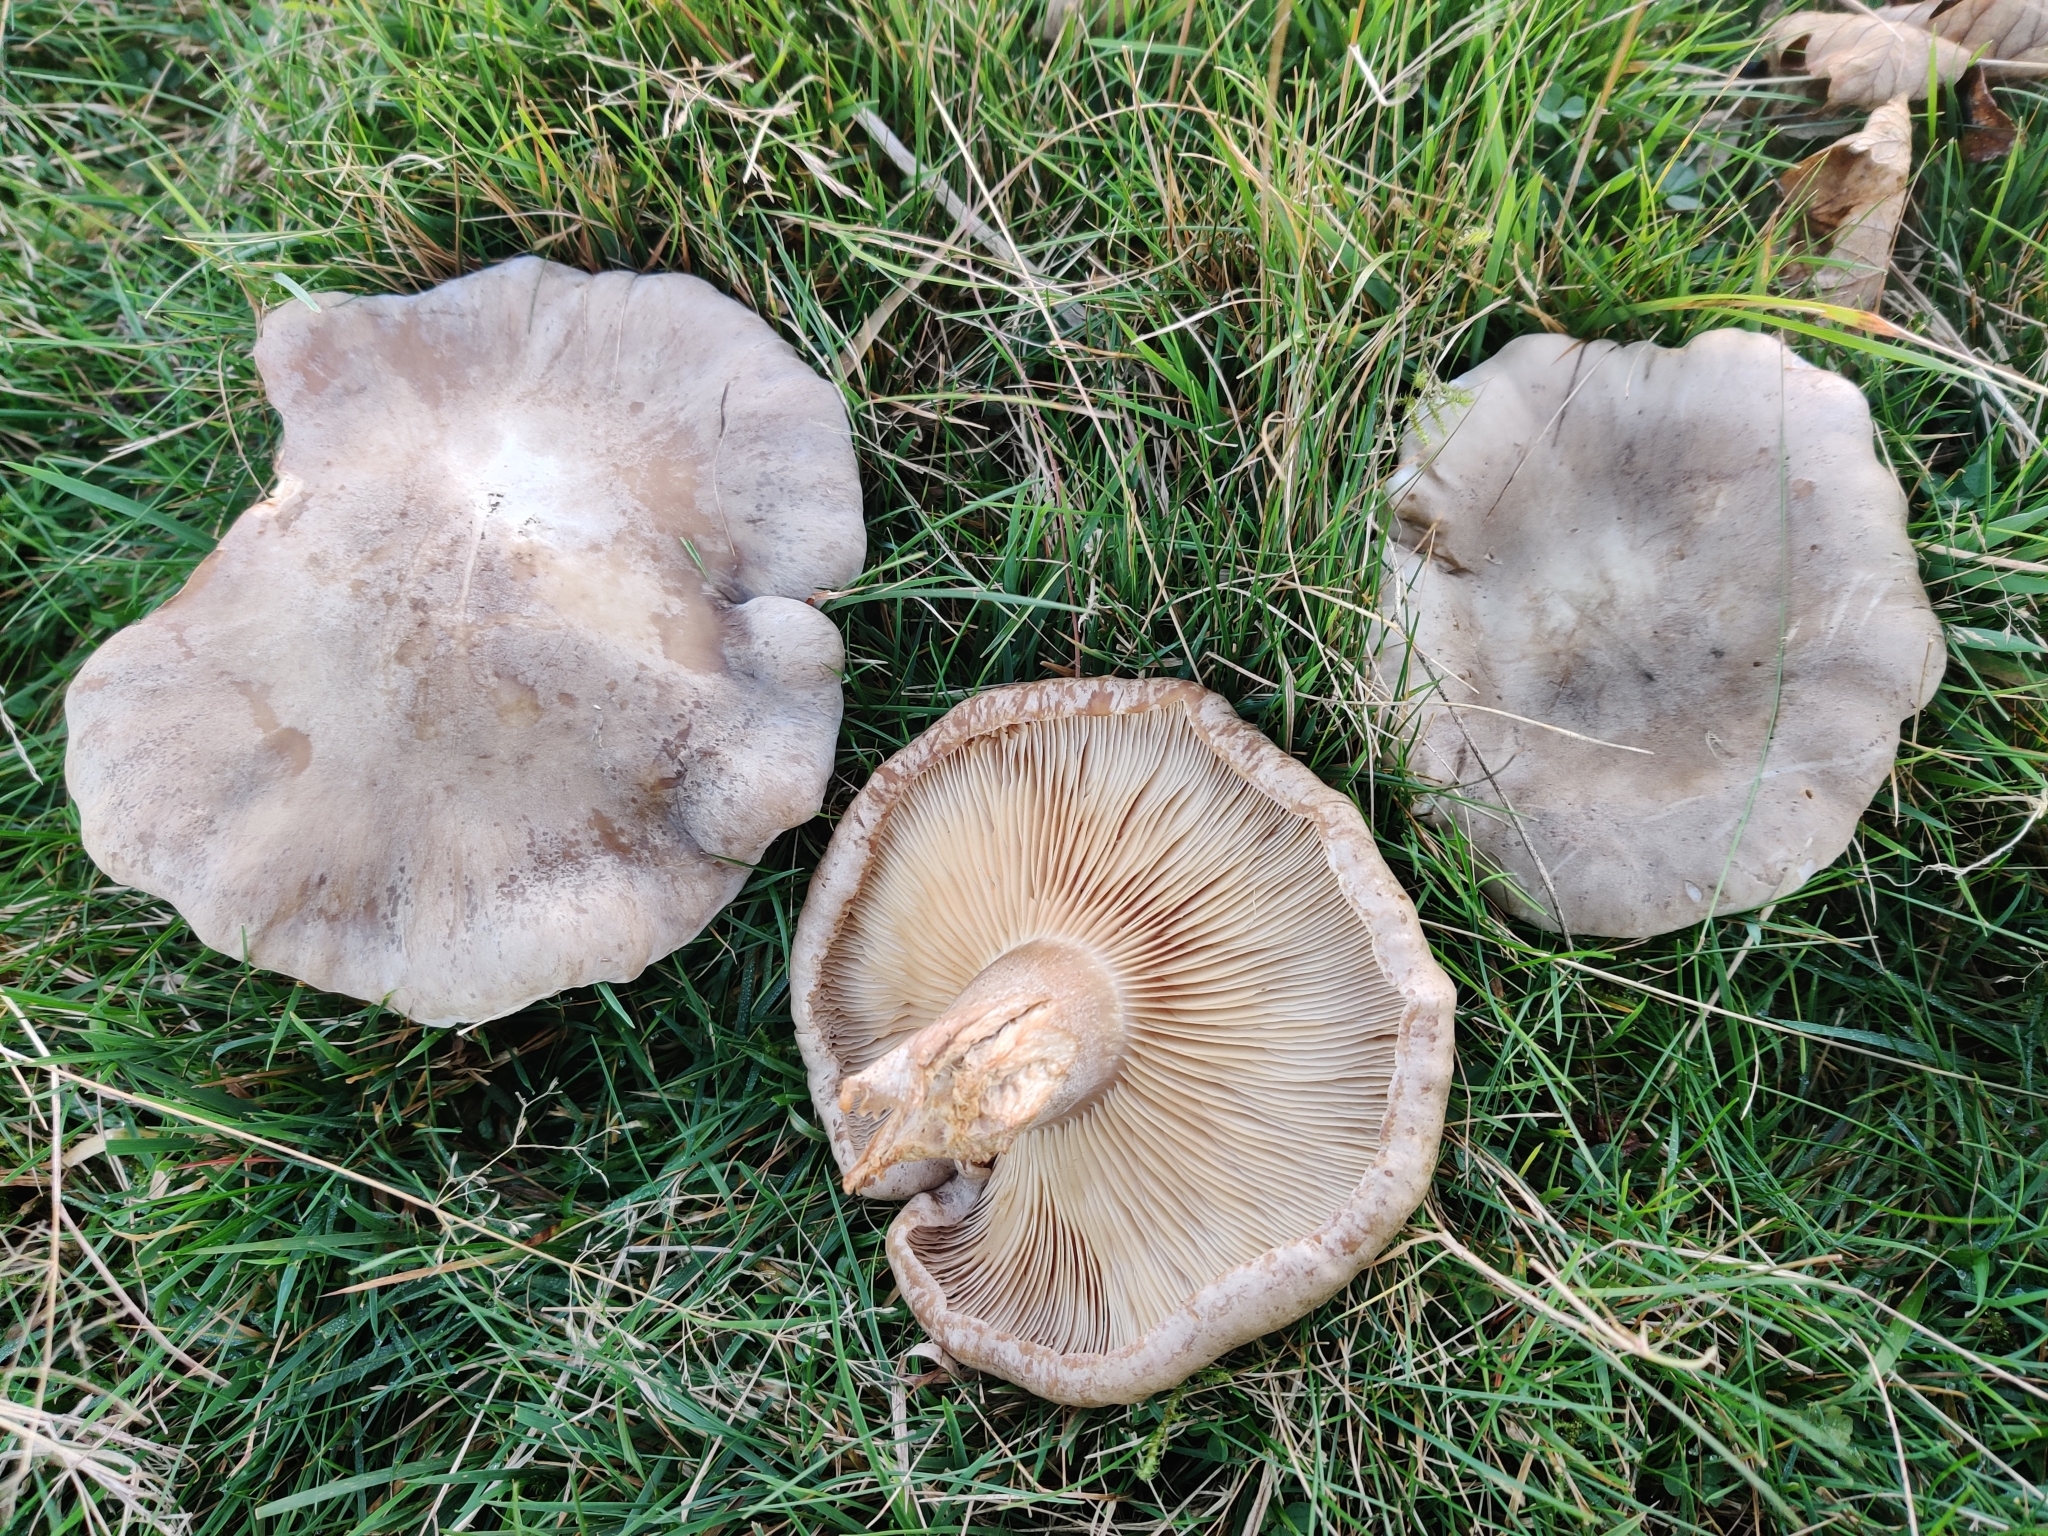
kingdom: Fungi
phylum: Basidiomycota
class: Agaricomycetes
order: Agaricales
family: Tricholomataceae
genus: Clitocybe
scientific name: Clitocybe nebularis
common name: Clouded agaric
